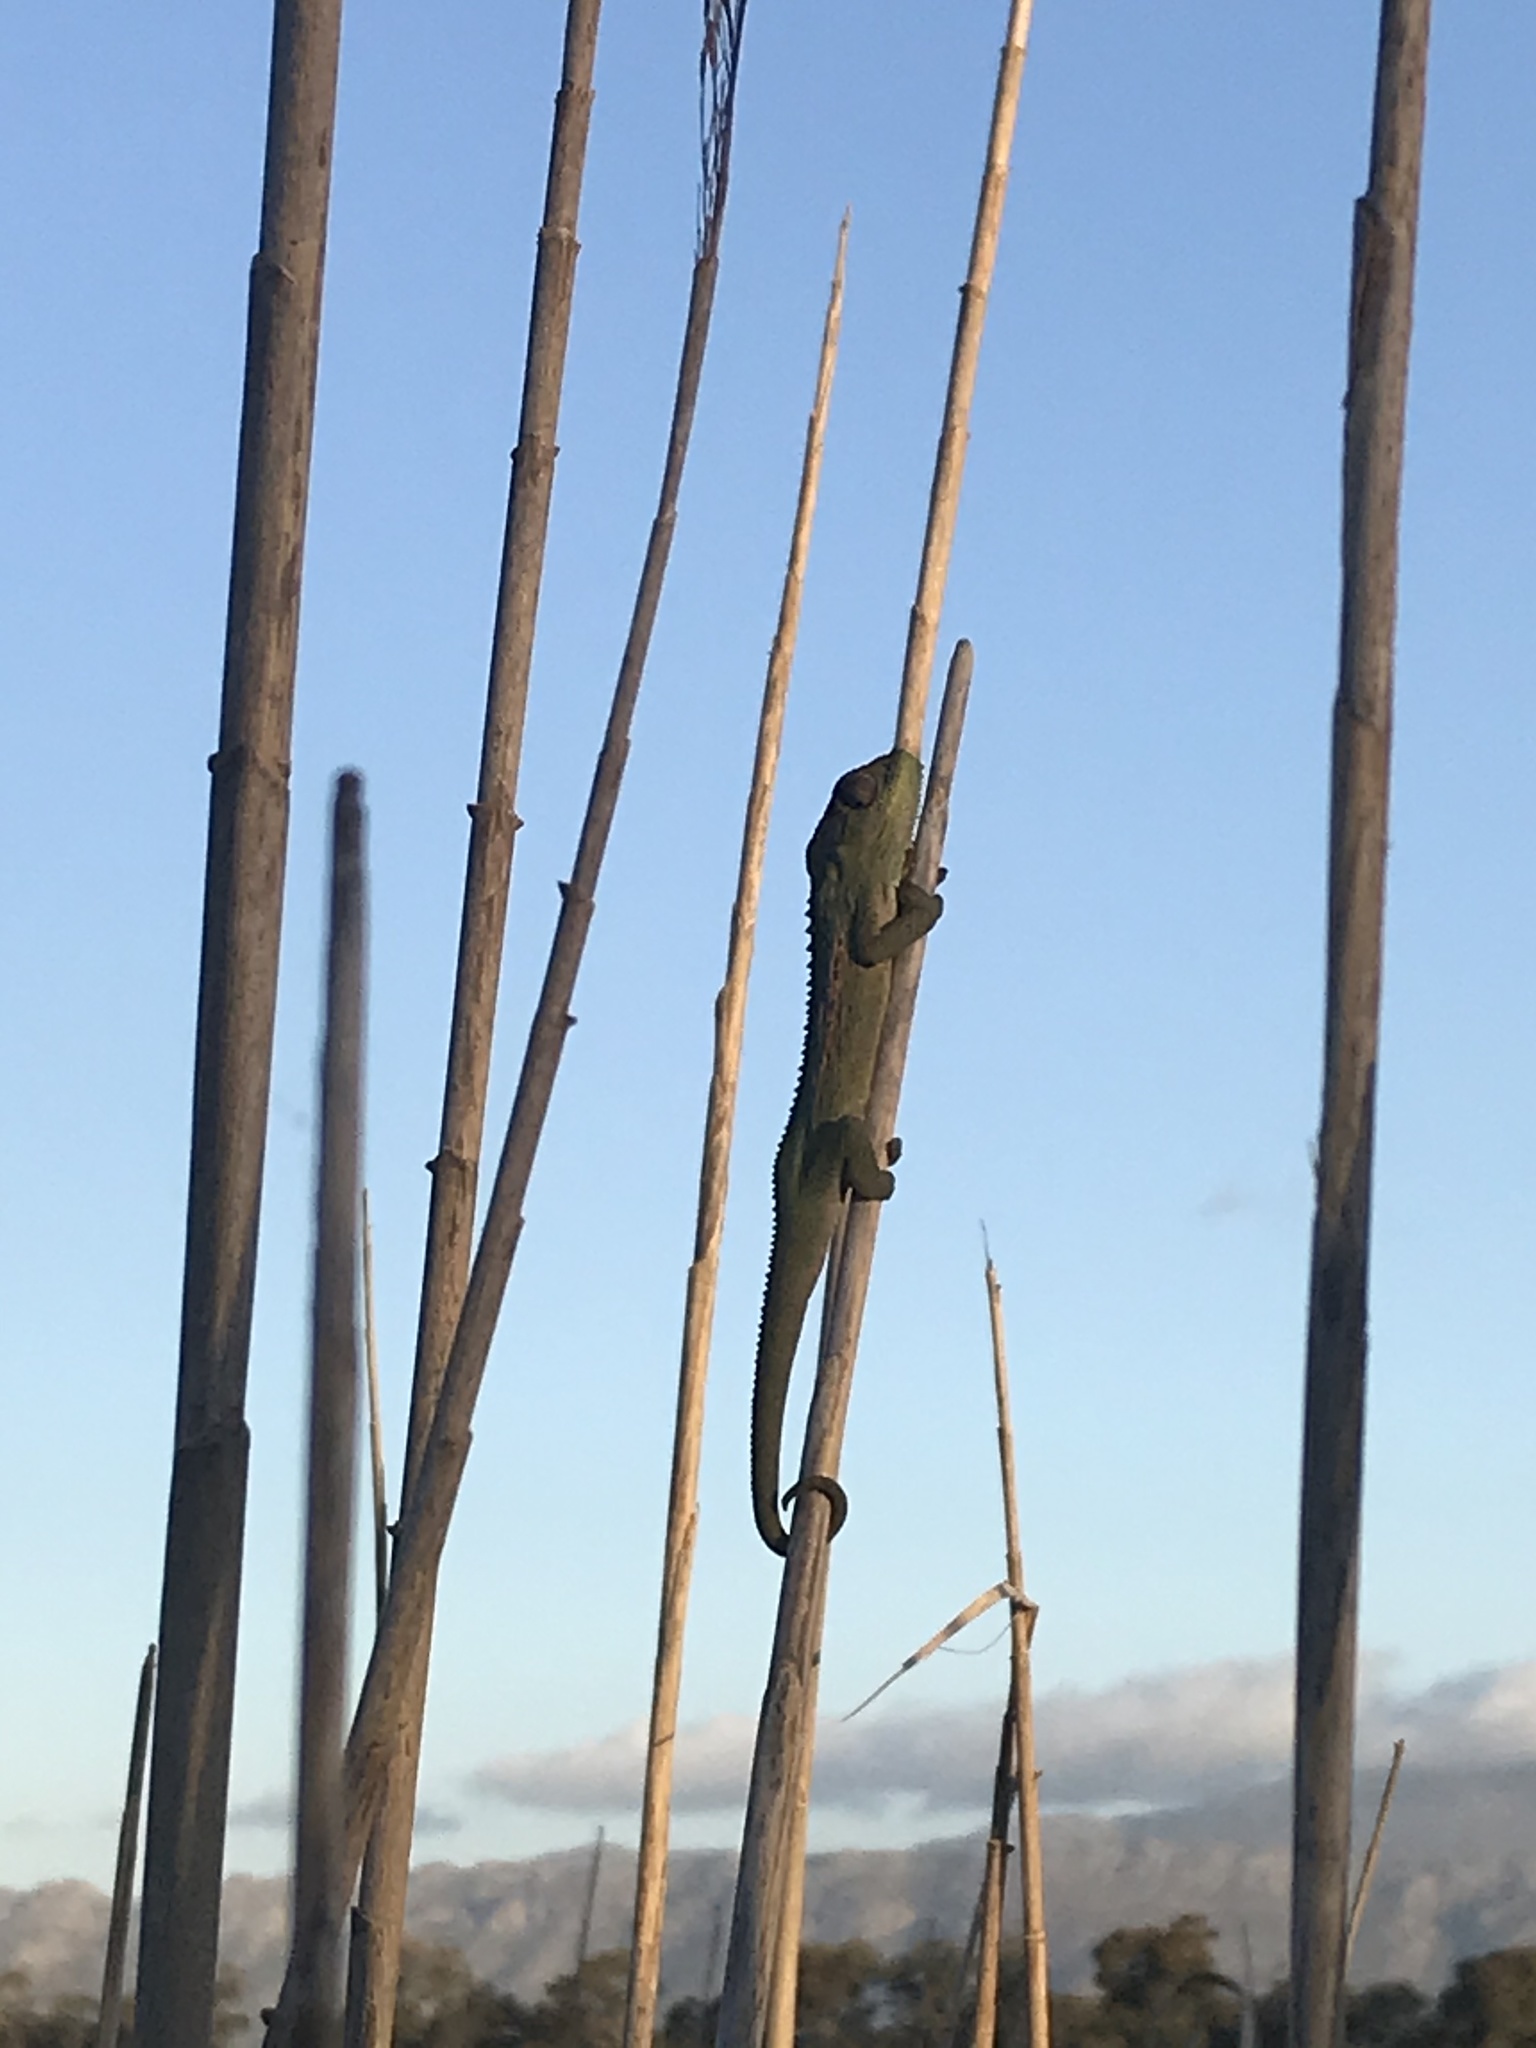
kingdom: Animalia
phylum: Chordata
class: Squamata
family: Chamaeleonidae
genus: Bradypodion
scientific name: Bradypodion pumilum
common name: Cape dwarf chameleon
